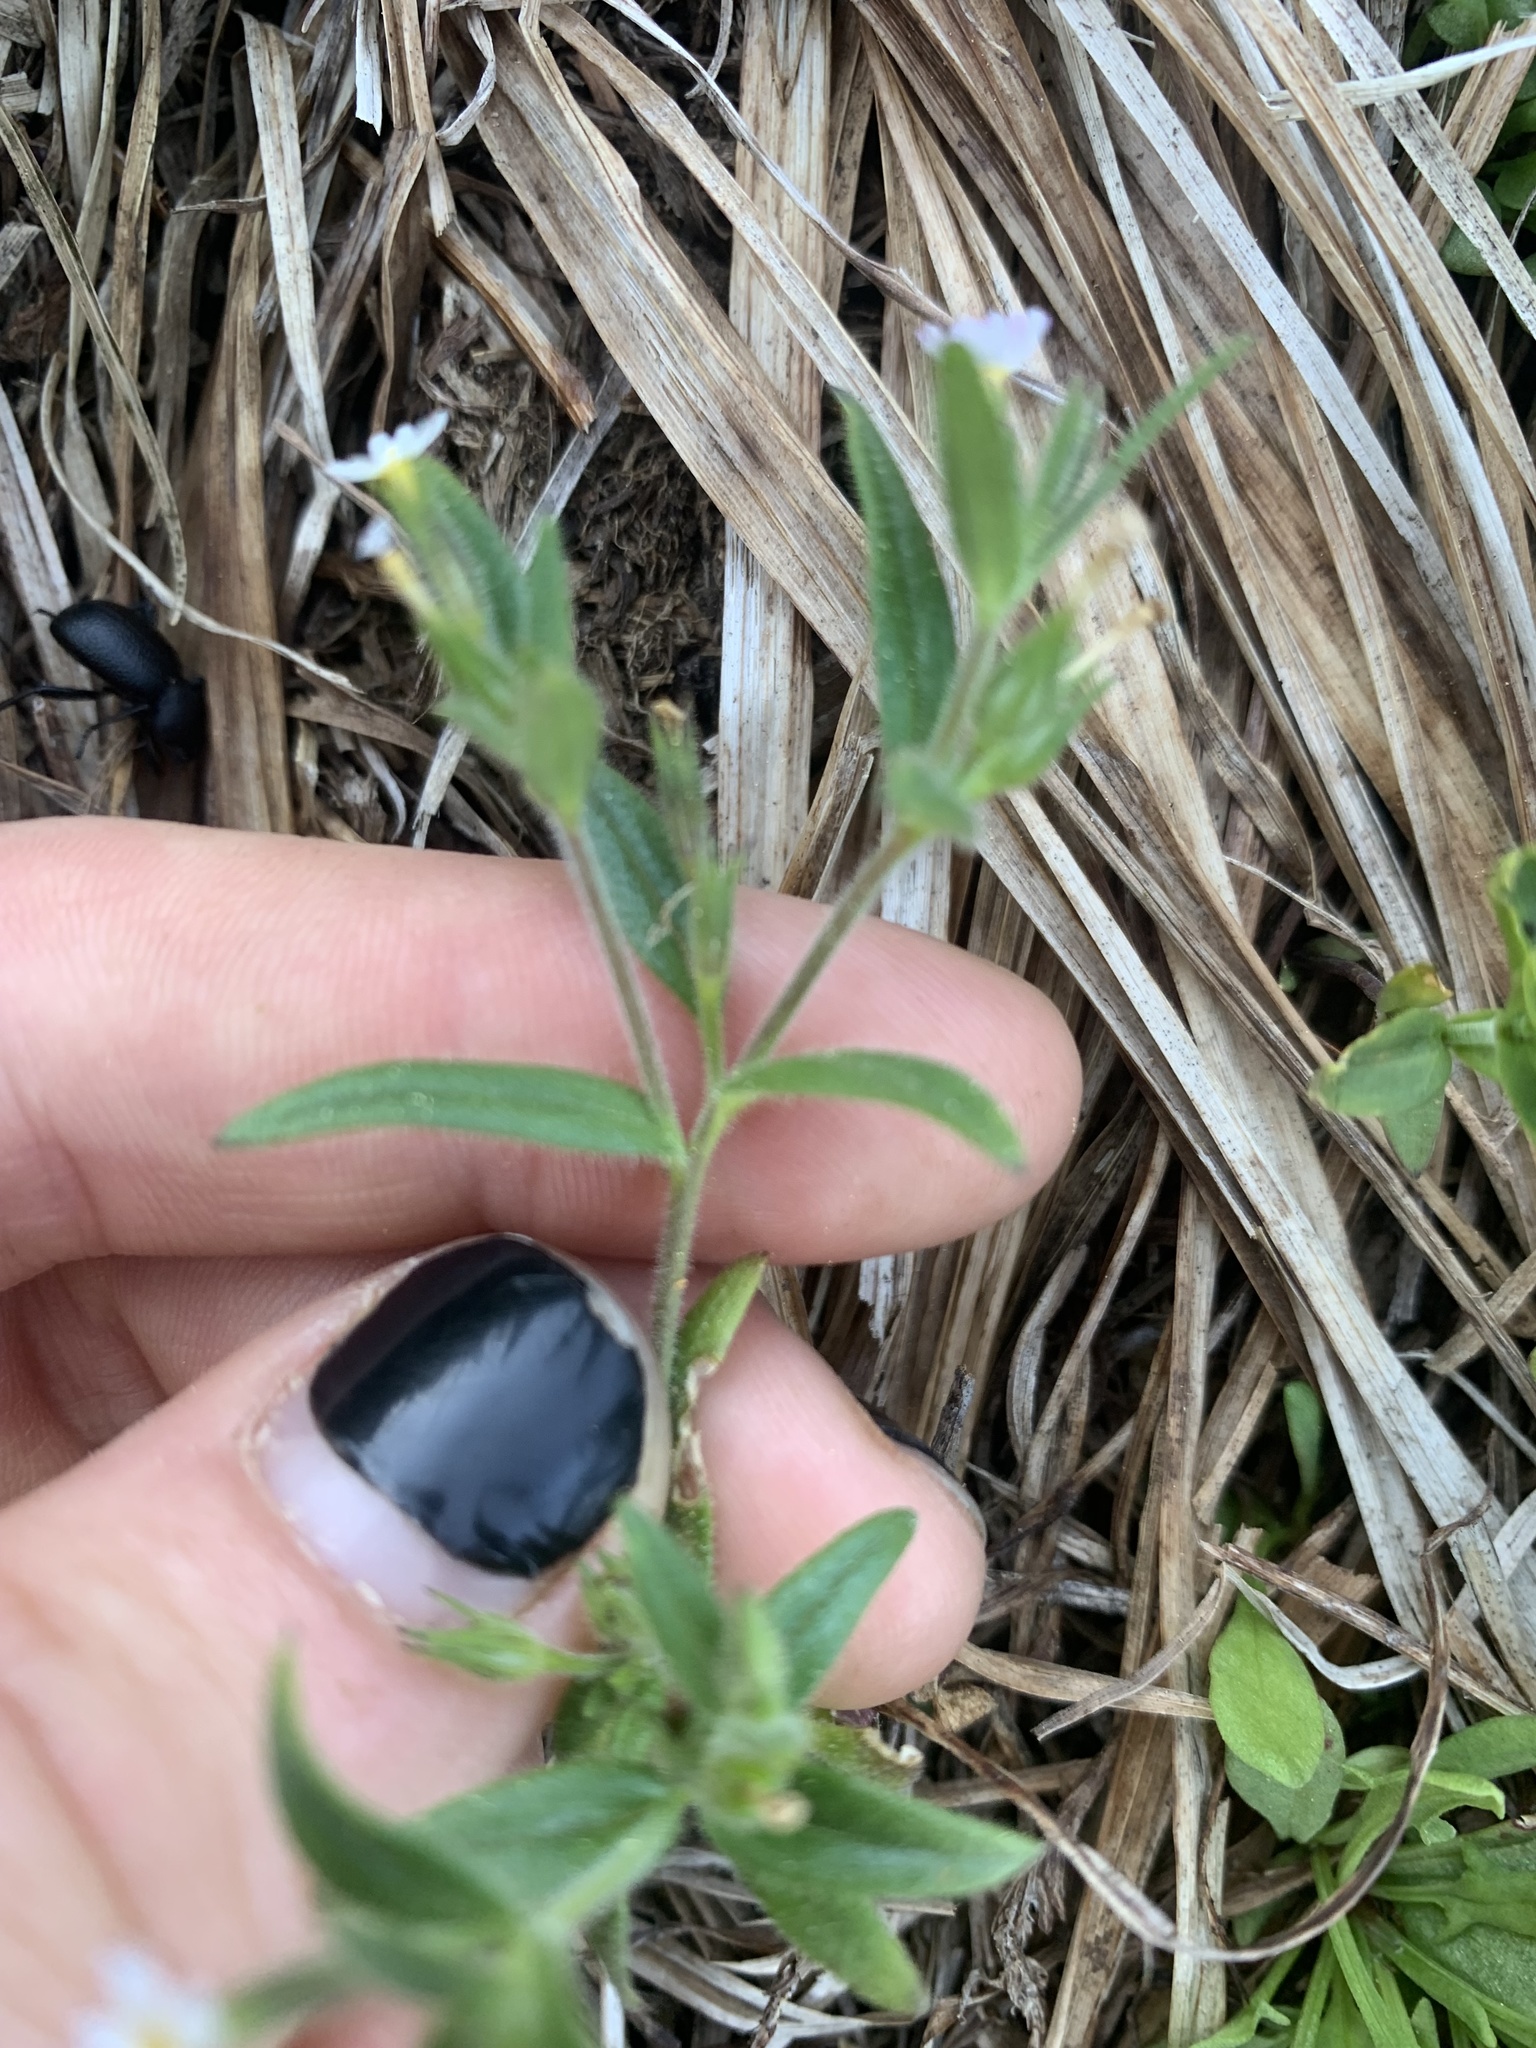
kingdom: Plantae
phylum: Tracheophyta
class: Magnoliopsida
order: Ericales
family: Polemoniaceae
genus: Phlox
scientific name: Phlox gracilis
